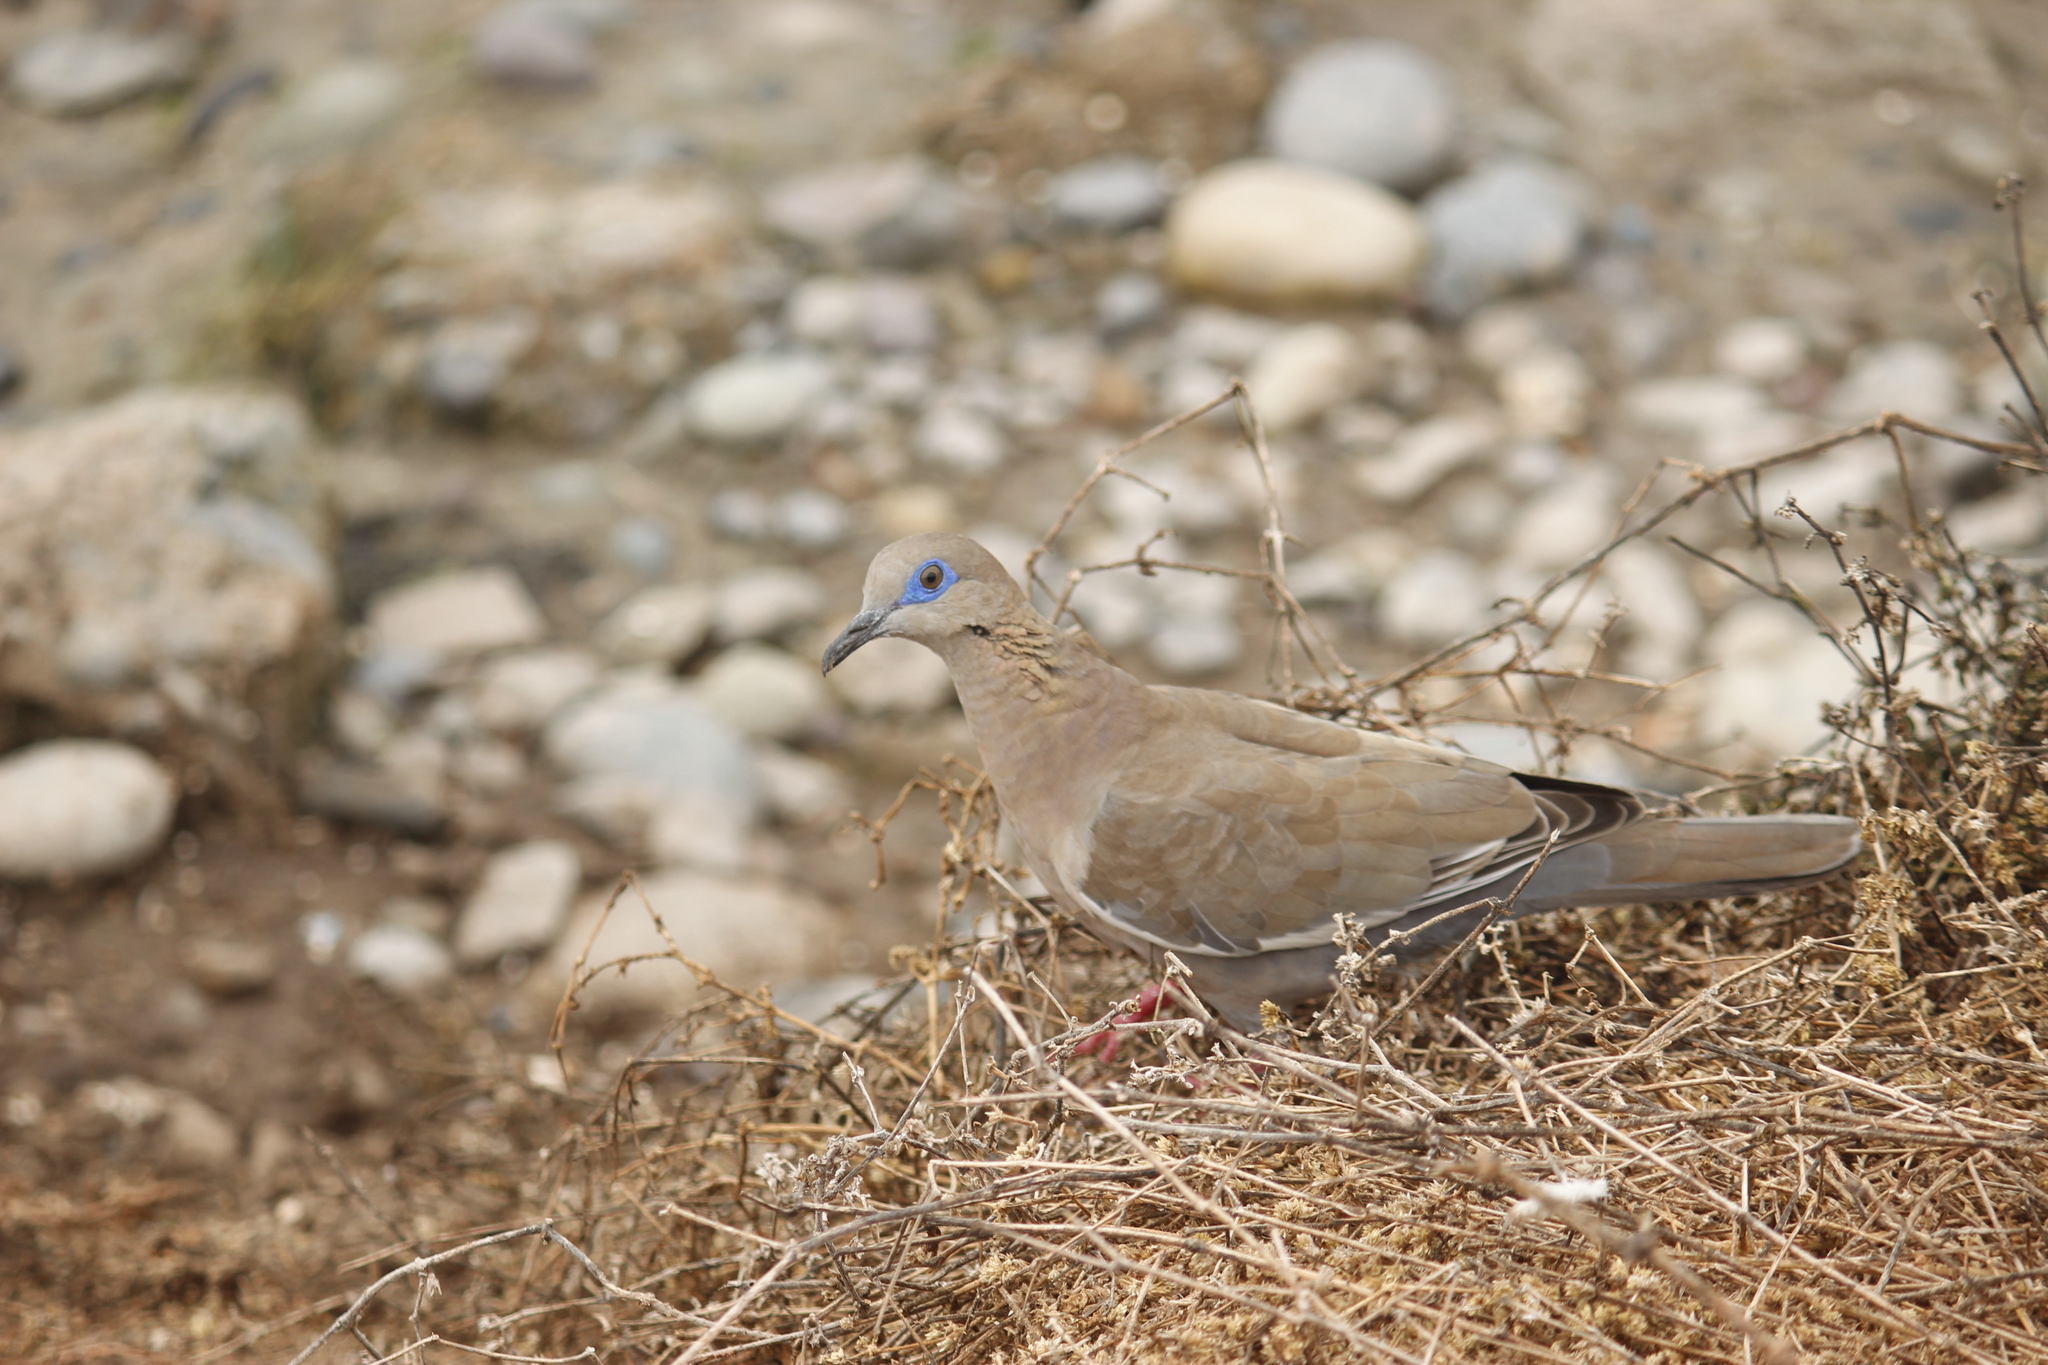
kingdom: Animalia
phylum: Chordata
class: Aves
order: Columbiformes
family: Columbidae
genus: Zenaida
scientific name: Zenaida meloda
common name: West peruvian dove
